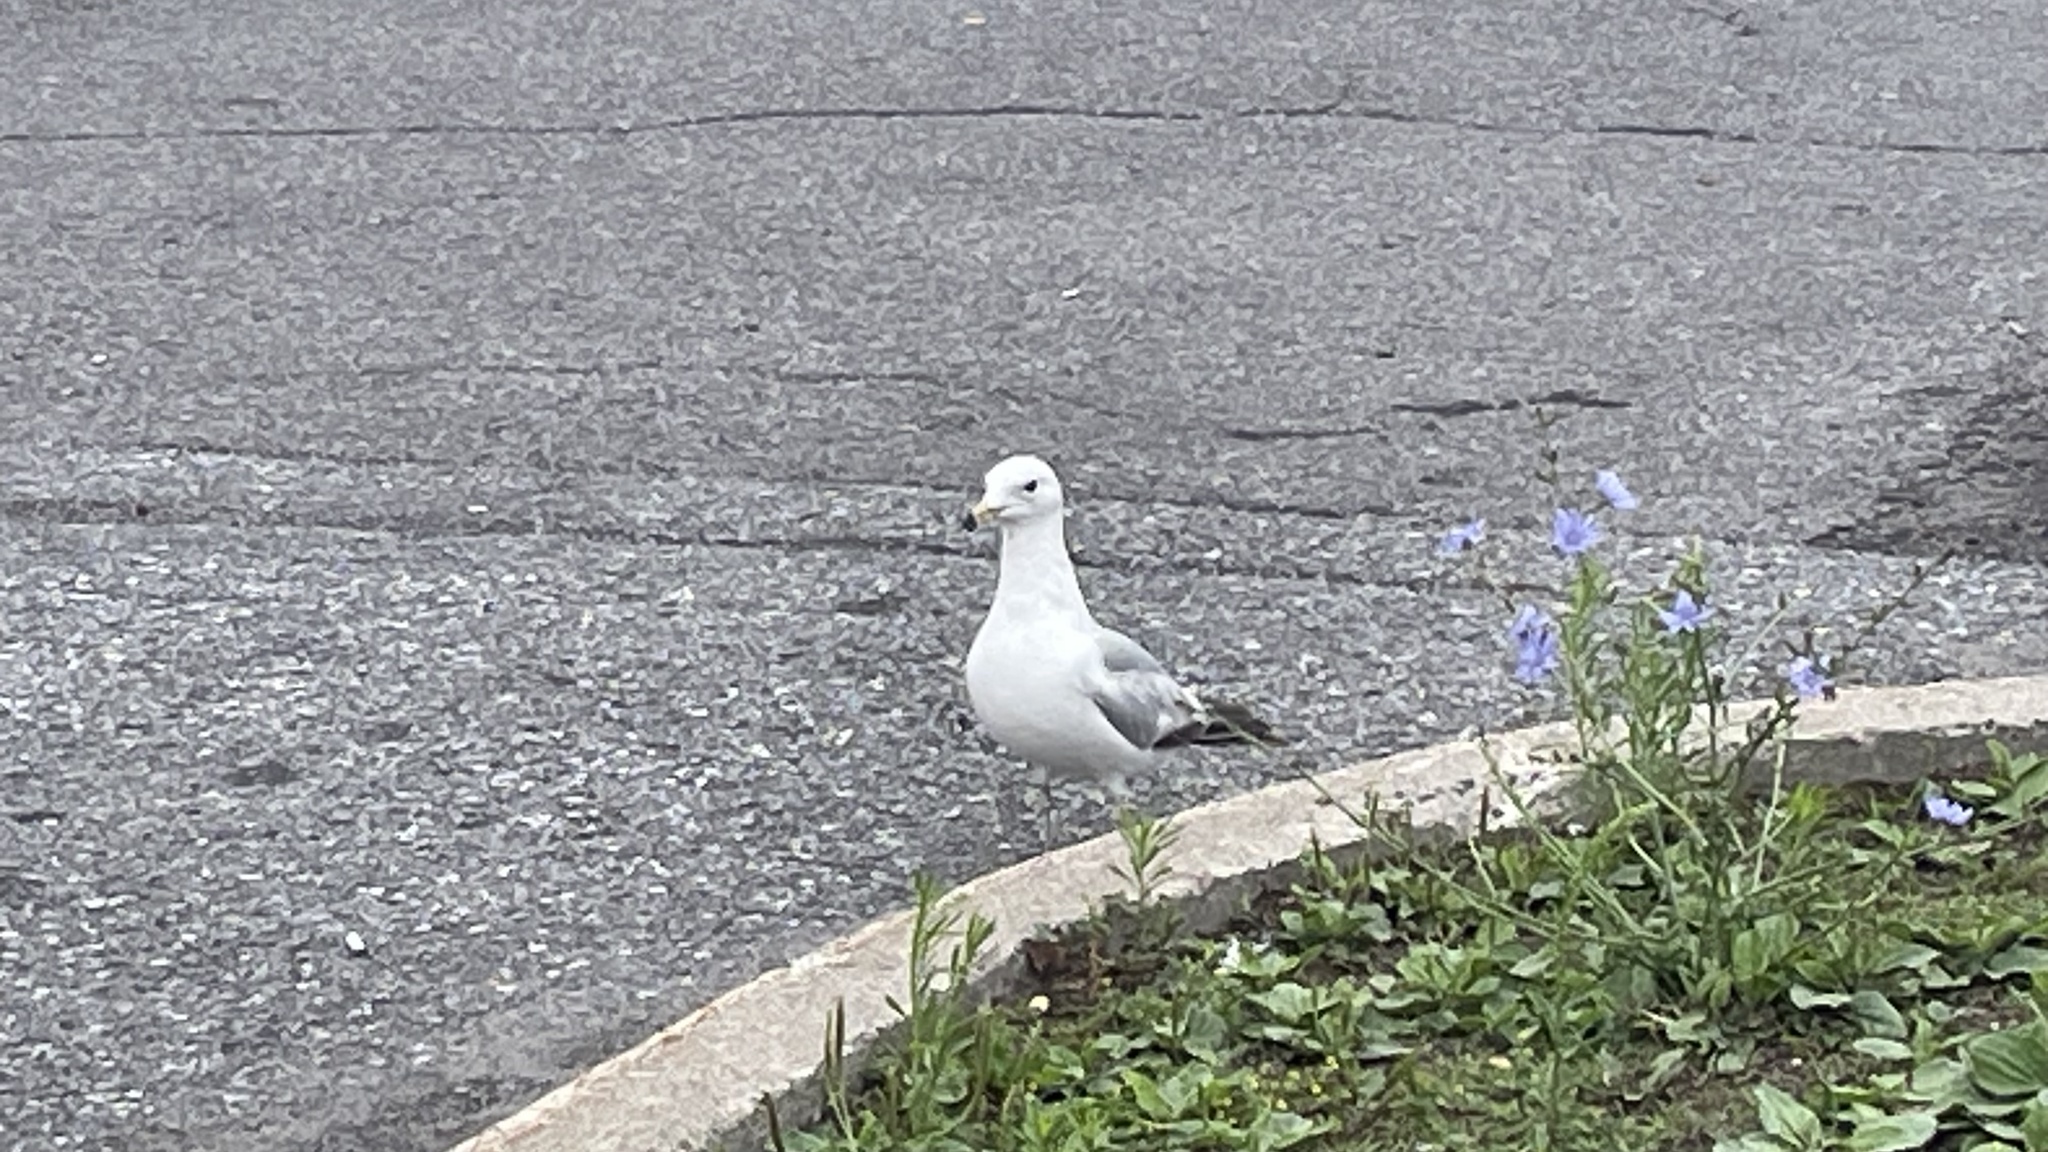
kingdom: Animalia
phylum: Chordata
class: Aves
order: Charadriiformes
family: Laridae
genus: Larus
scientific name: Larus delawarensis
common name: Ring-billed gull
